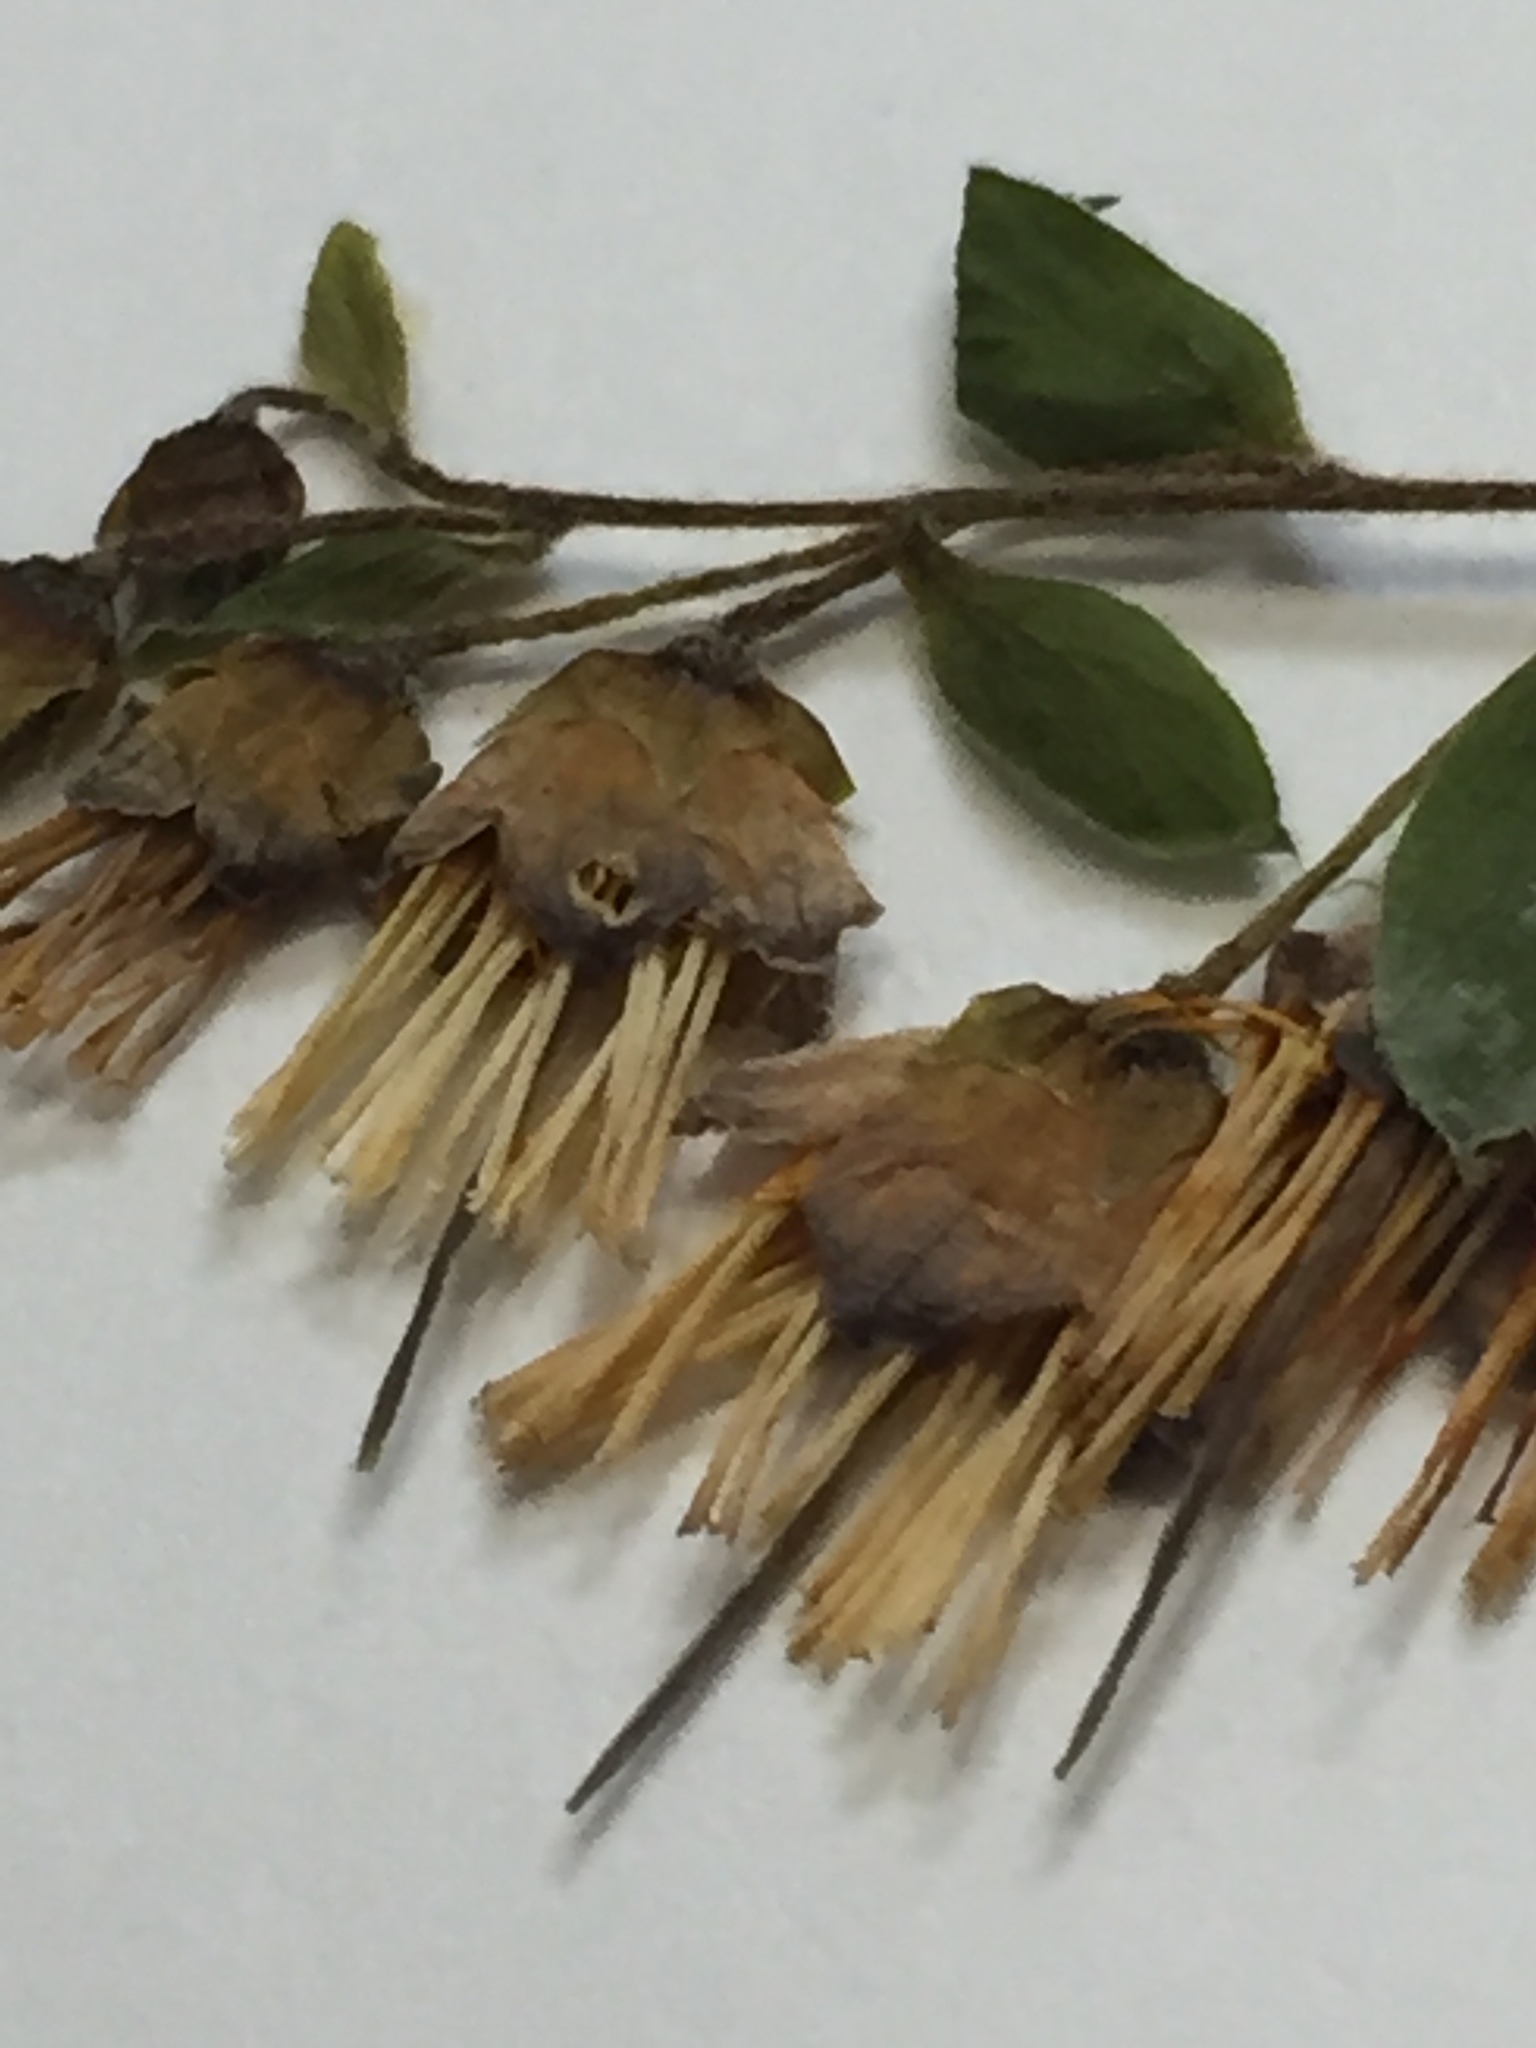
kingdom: Plantae
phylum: Tracheophyta
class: Magnoliopsida
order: Ericales
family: Ericaceae
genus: Vaccinium
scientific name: Vaccinium stamineum
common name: Deerberry
